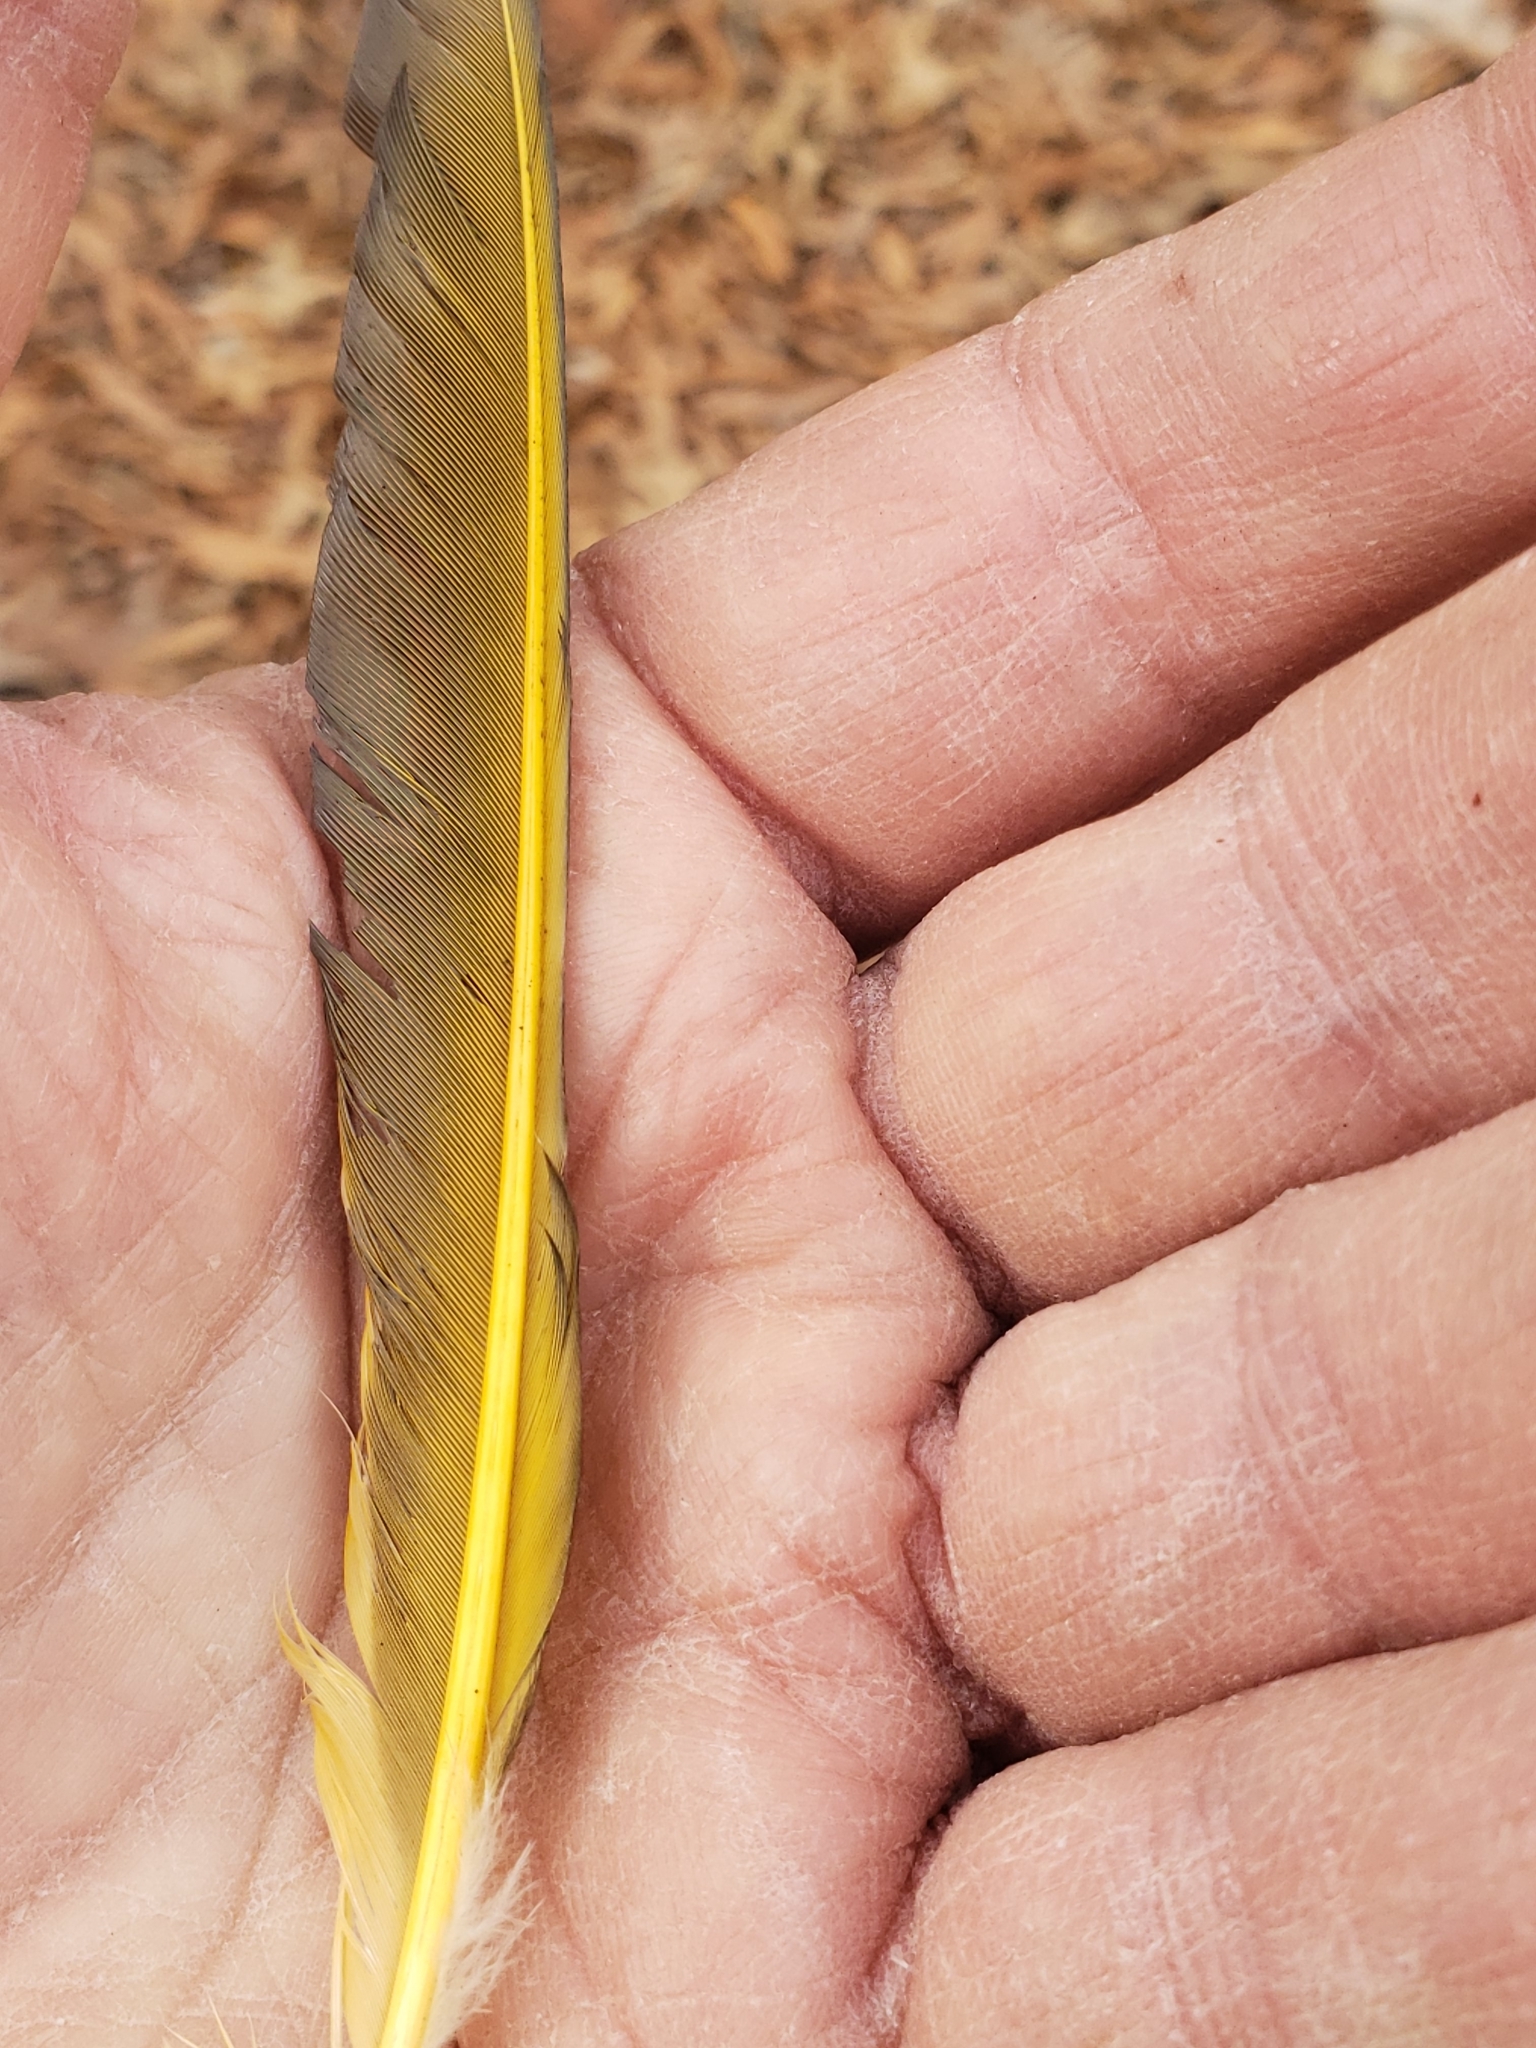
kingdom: Animalia
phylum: Chordata
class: Aves
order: Piciformes
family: Picidae
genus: Colaptes
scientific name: Colaptes auratus
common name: Northern flicker
